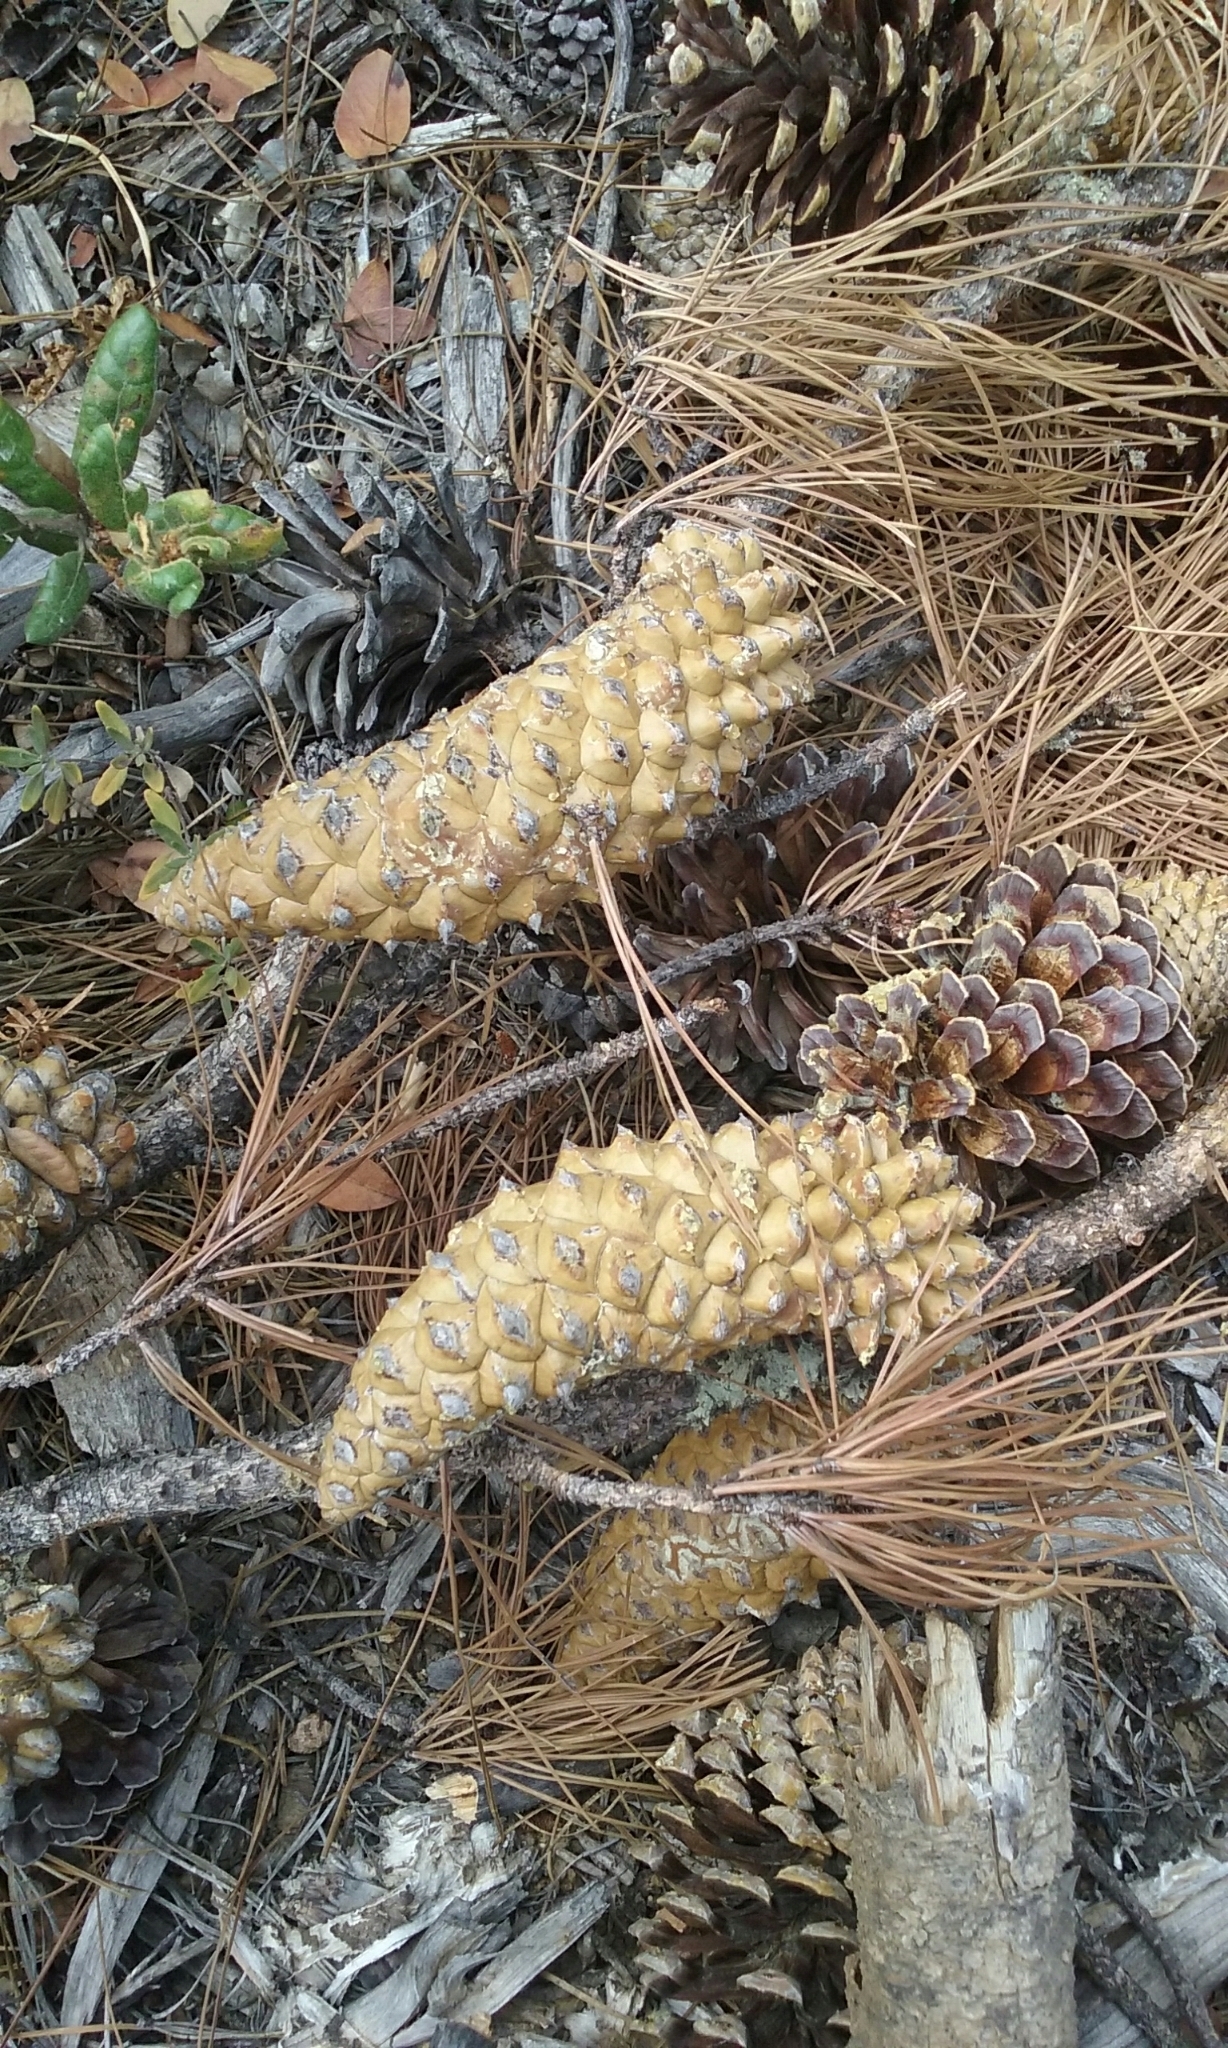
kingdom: Plantae
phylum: Tracheophyta
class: Pinopsida
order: Pinales
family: Pinaceae
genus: Pinus
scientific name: Pinus attenuata
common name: Knobcone pine
